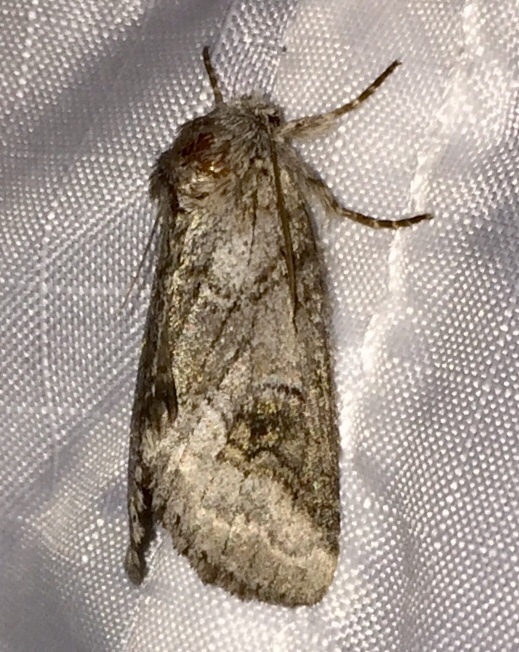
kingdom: Animalia
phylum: Arthropoda
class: Insecta
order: Lepidoptera
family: Notodontidae
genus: Lochmaeus
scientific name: Lochmaeus bilineata
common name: Double-lined prominent
